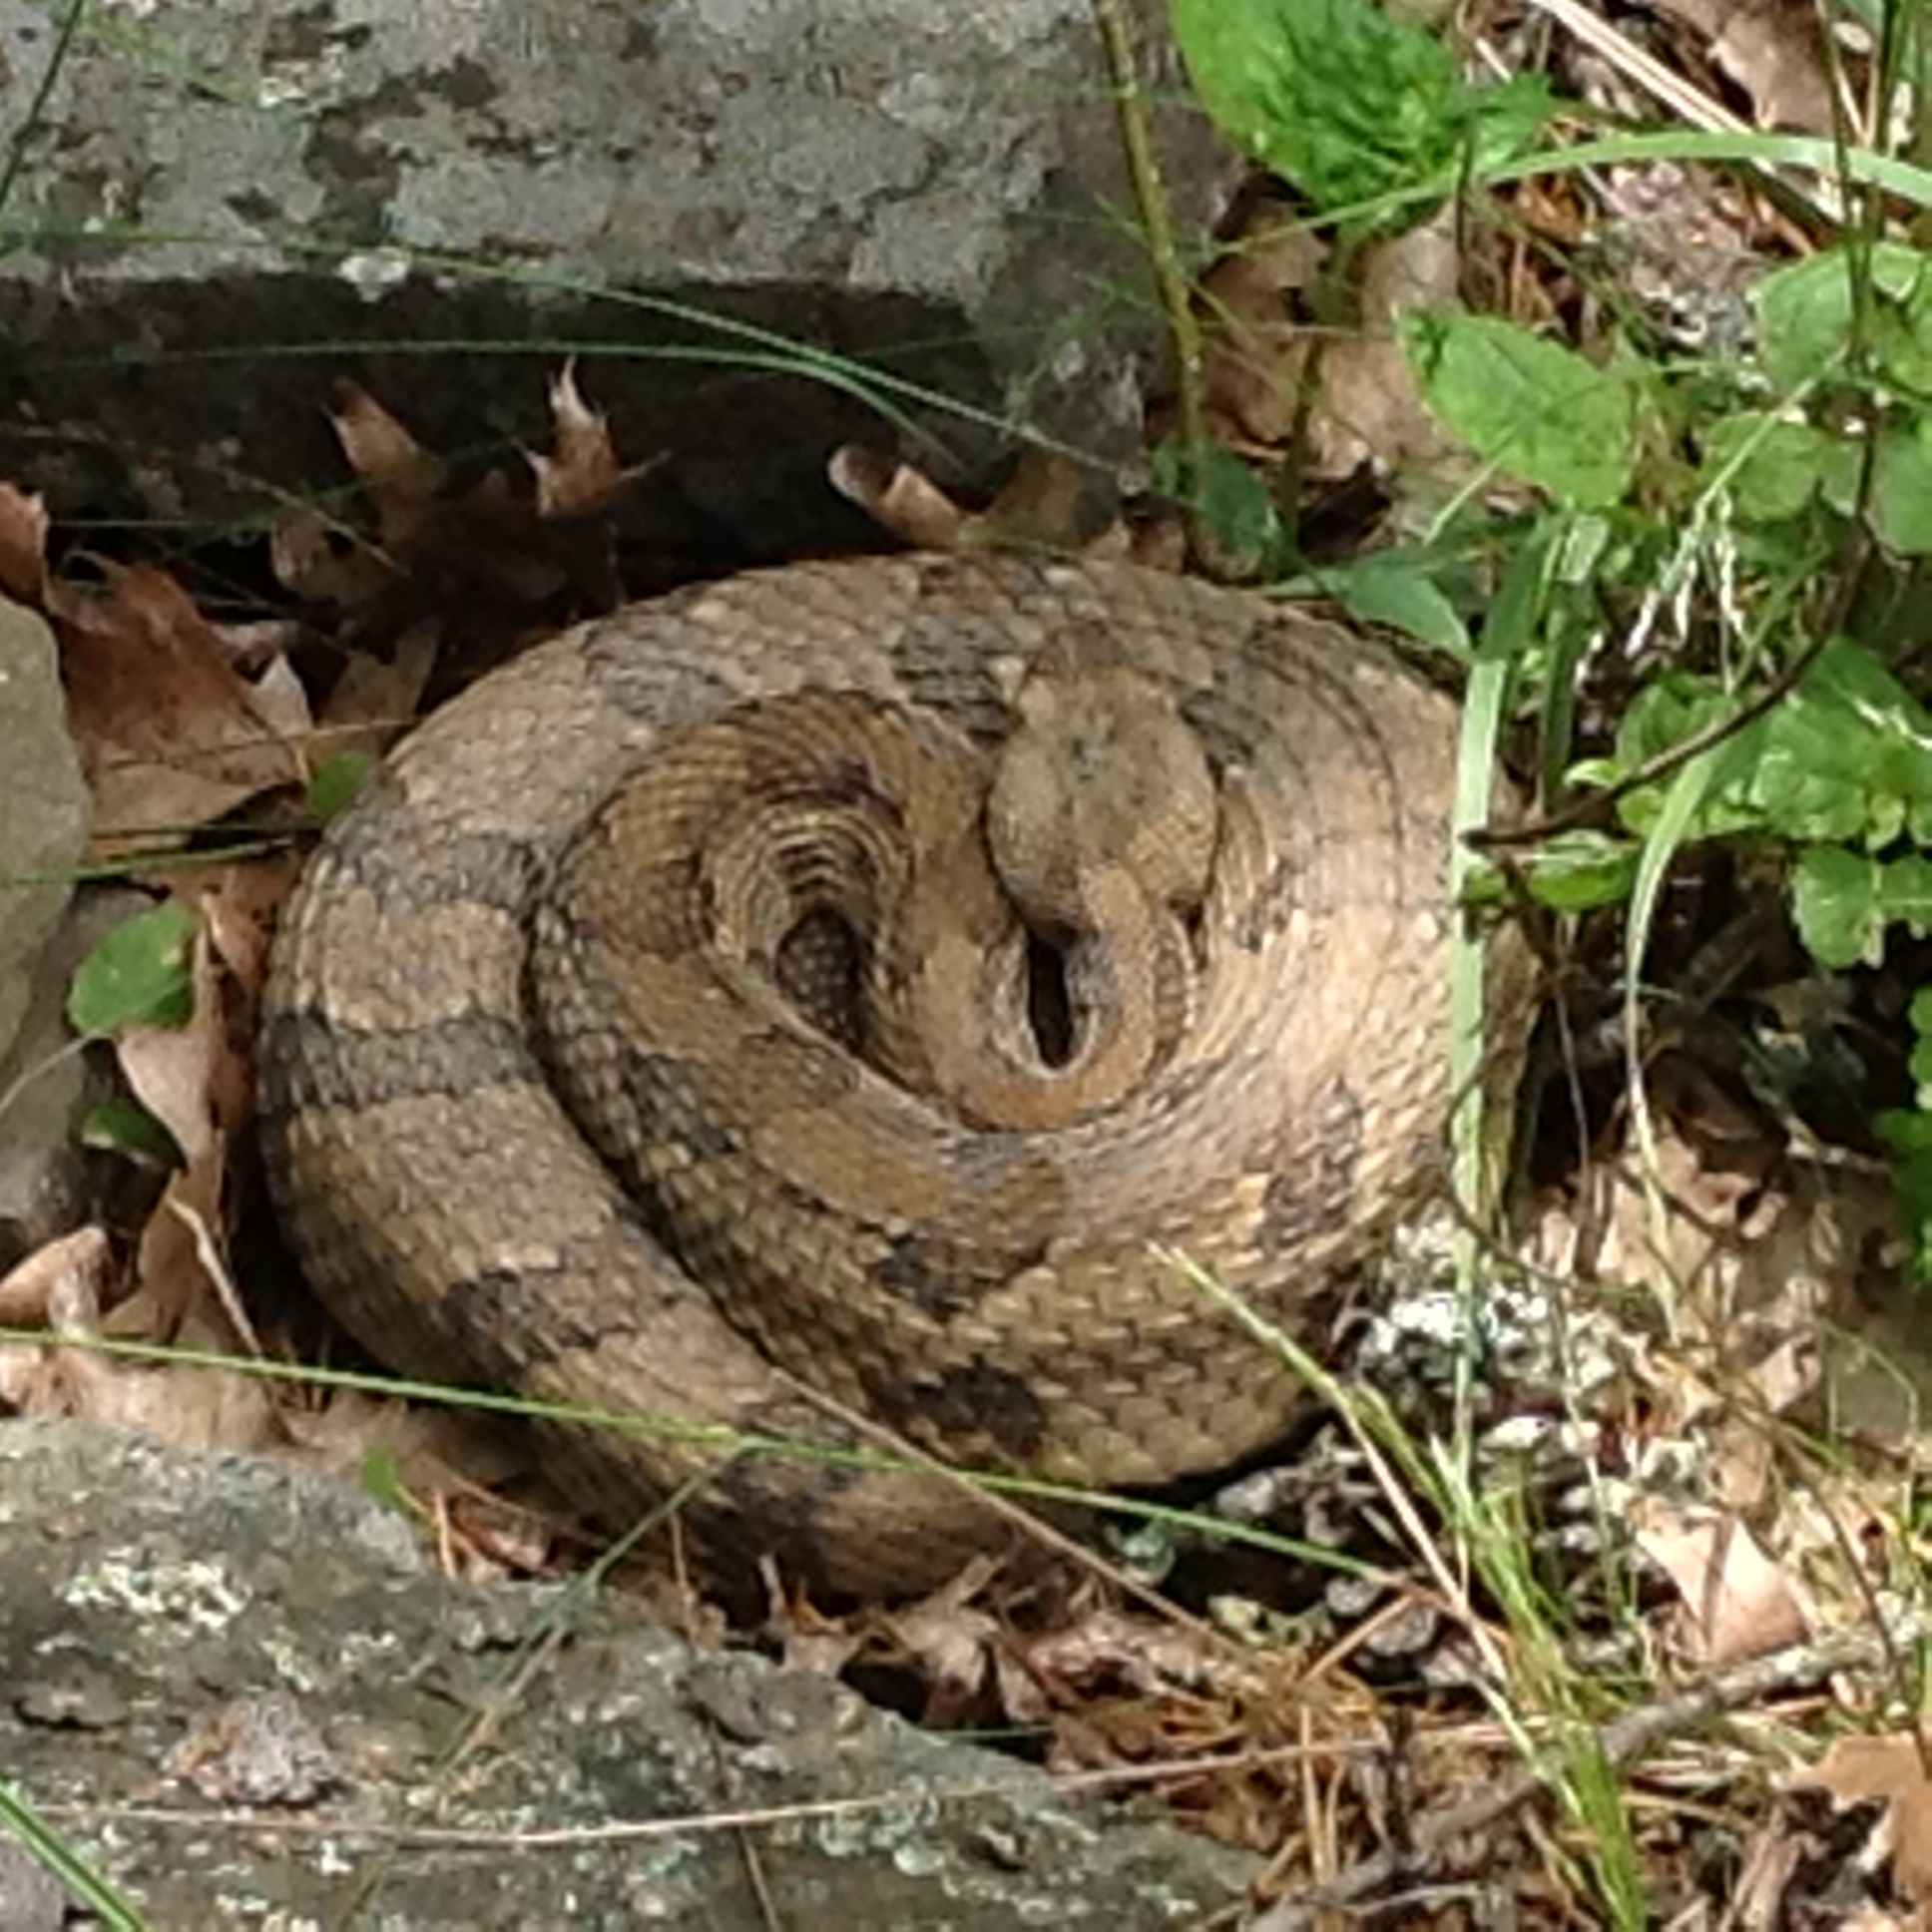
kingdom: Animalia
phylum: Chordata
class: Squamata
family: Viperidae
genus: Crotalus
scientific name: Crotalus horridus
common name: Timber rattlesnake
